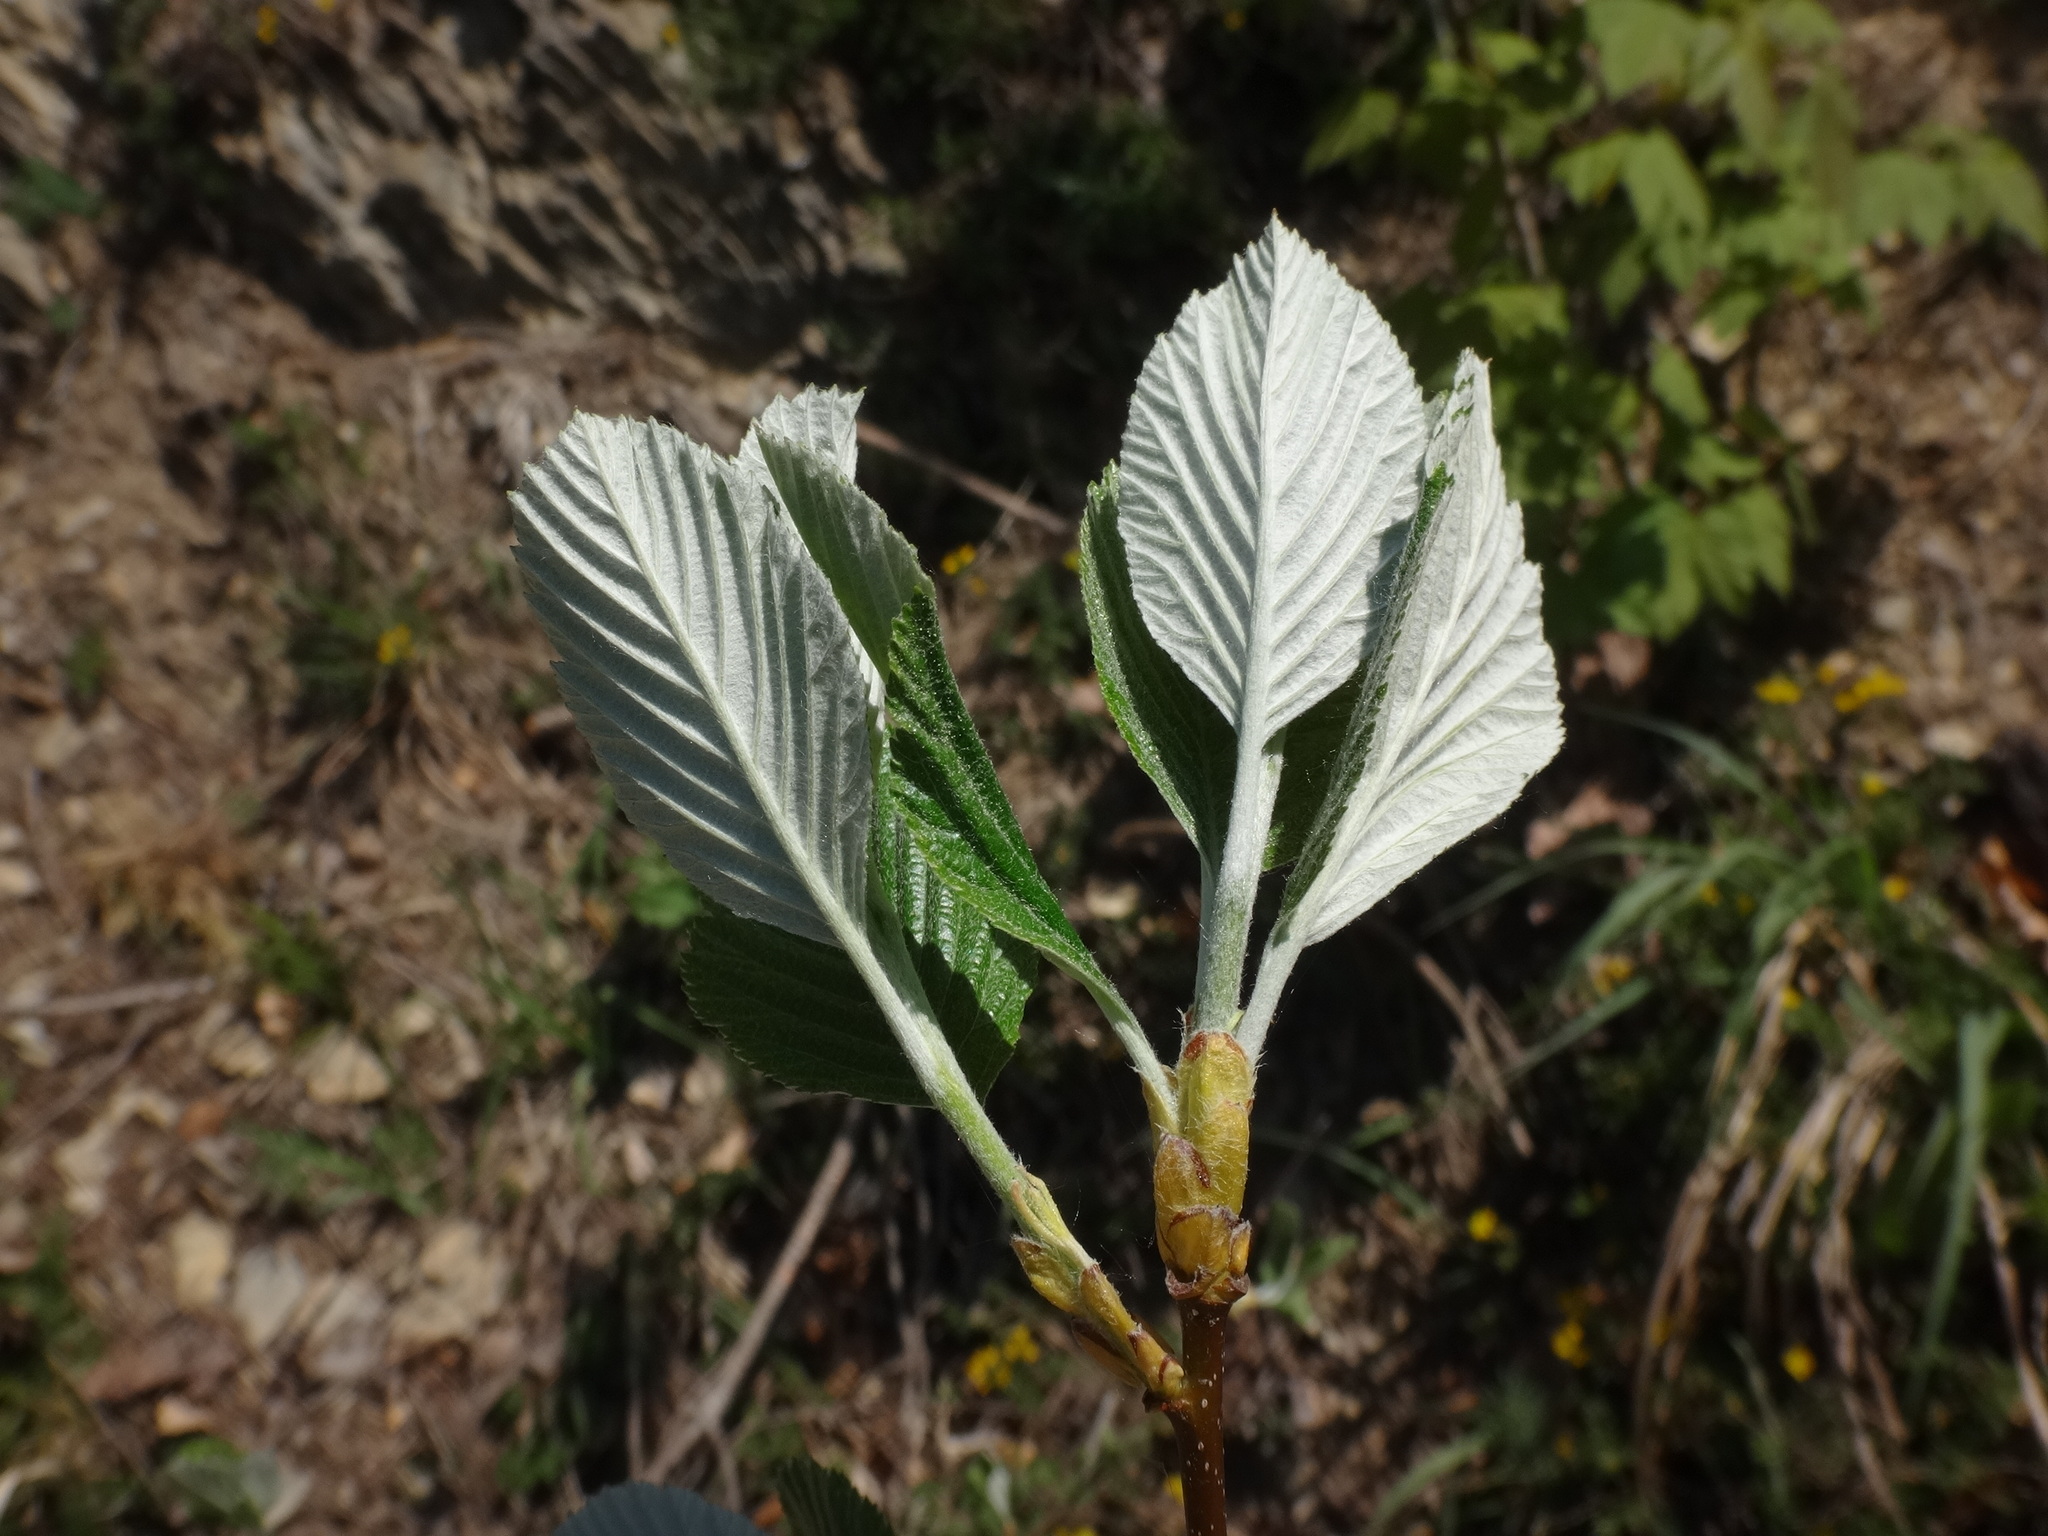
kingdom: Plantae
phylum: Tracheophyta
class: Magnoliopsida
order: Rosales
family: Rosaceae
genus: Aria
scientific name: Aria edulis
